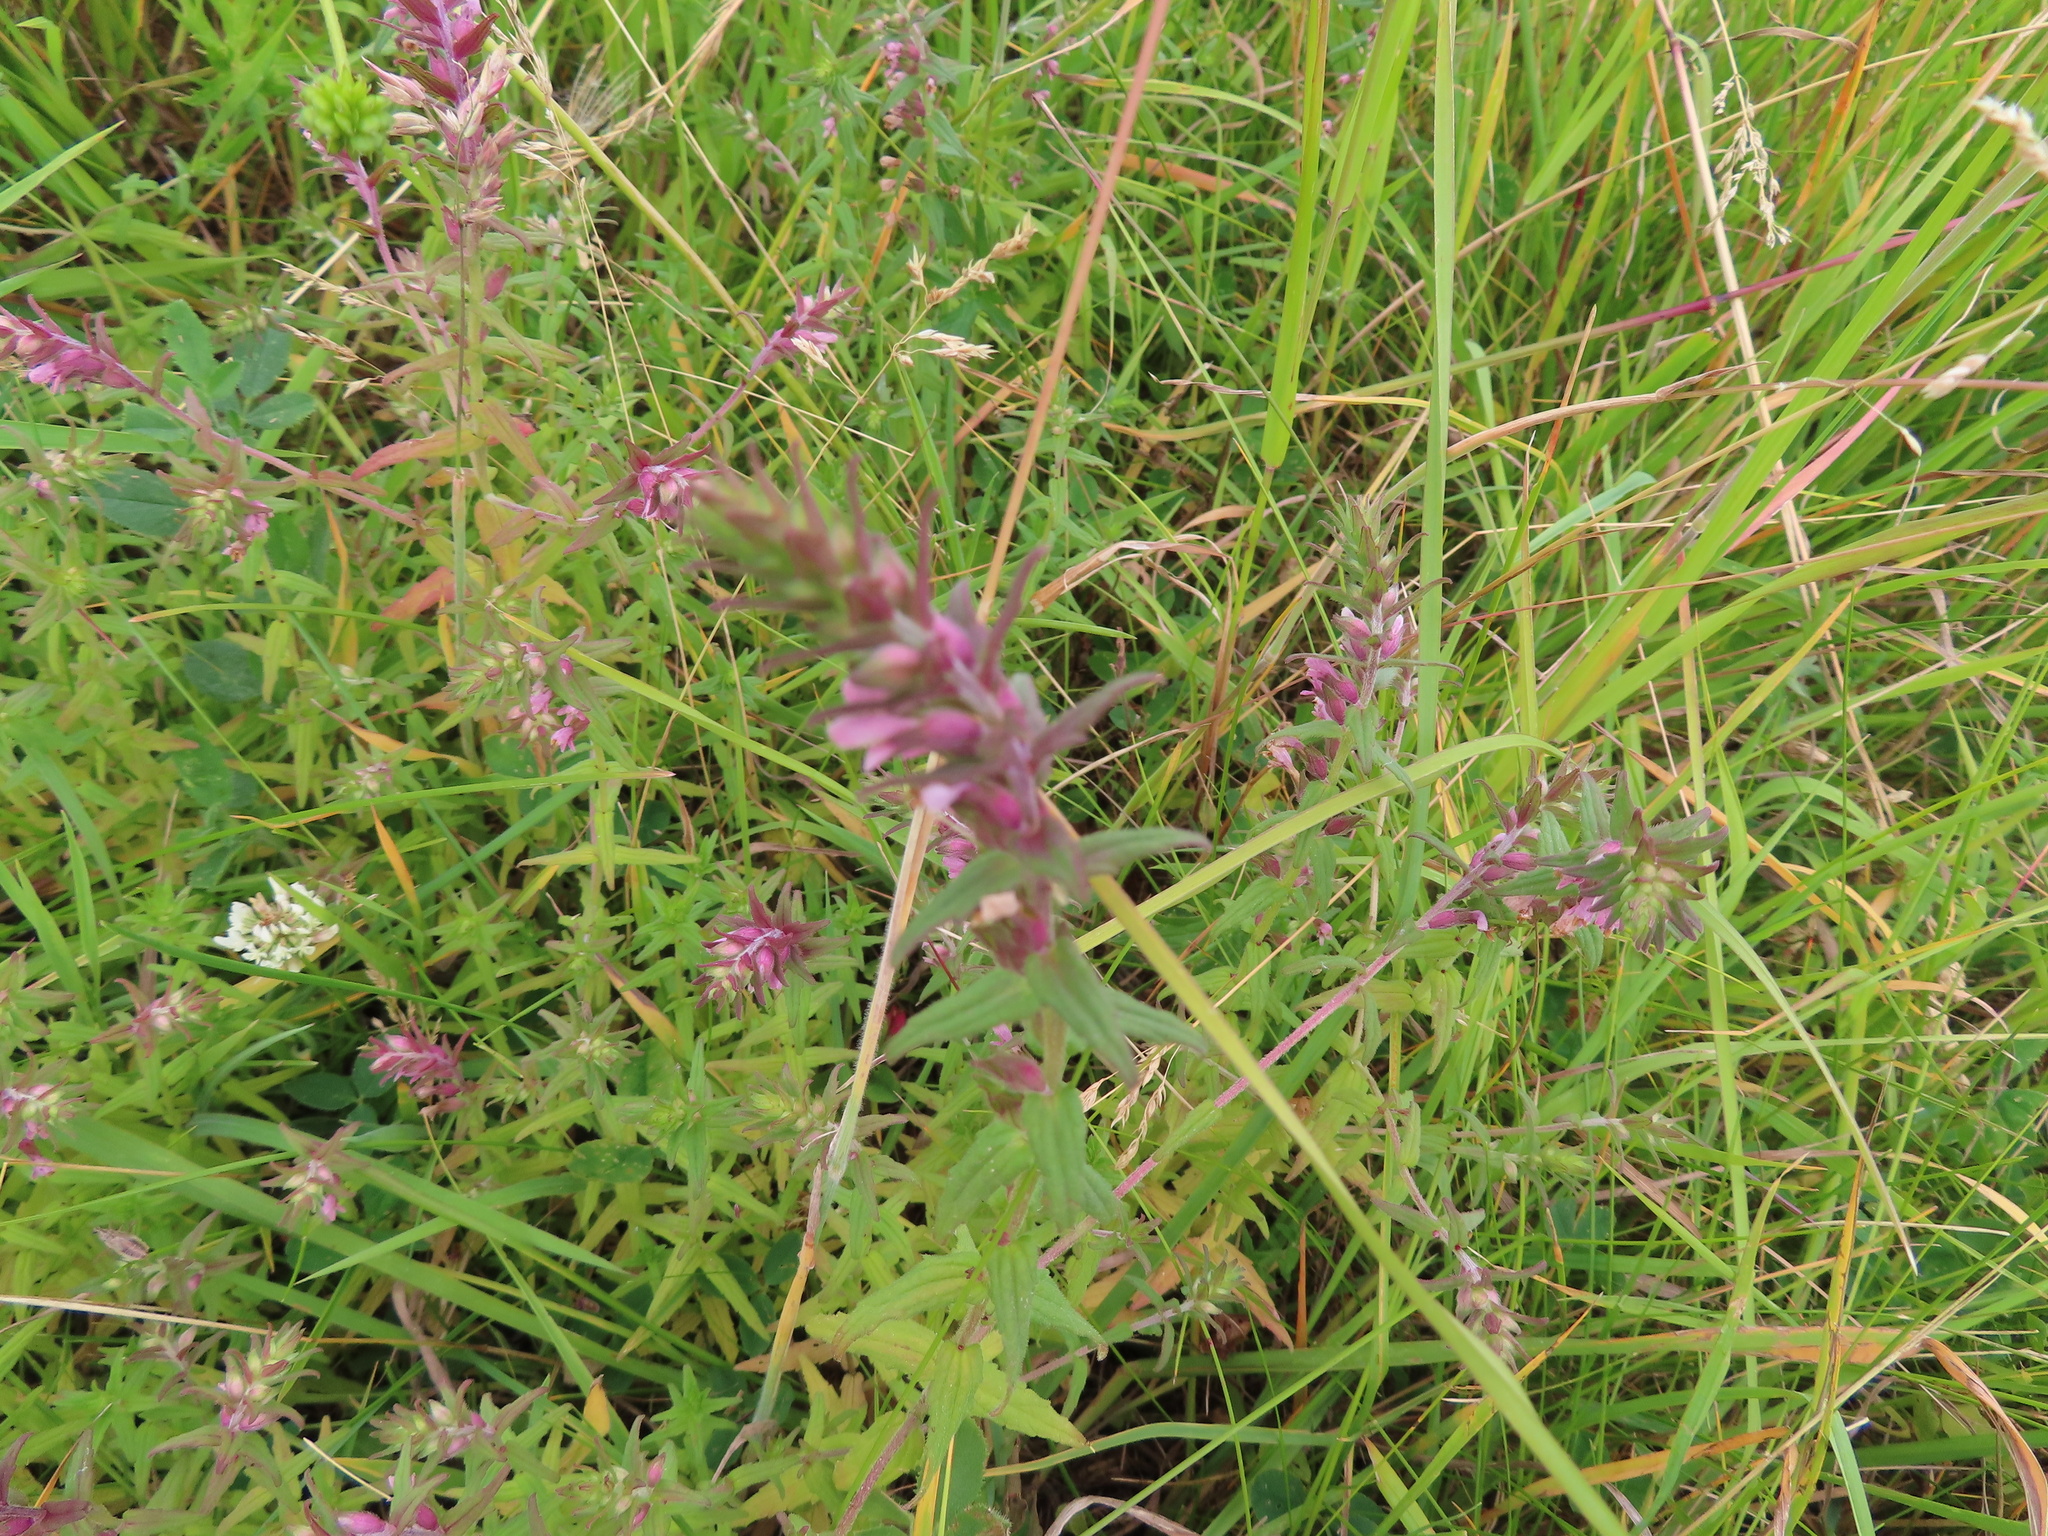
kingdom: Plantae
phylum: Tracheophyta
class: Magnoliopsida
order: Lamiales
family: Orobanchaceae
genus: Odontites
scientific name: Odontites vulgaris
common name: Broomrape
